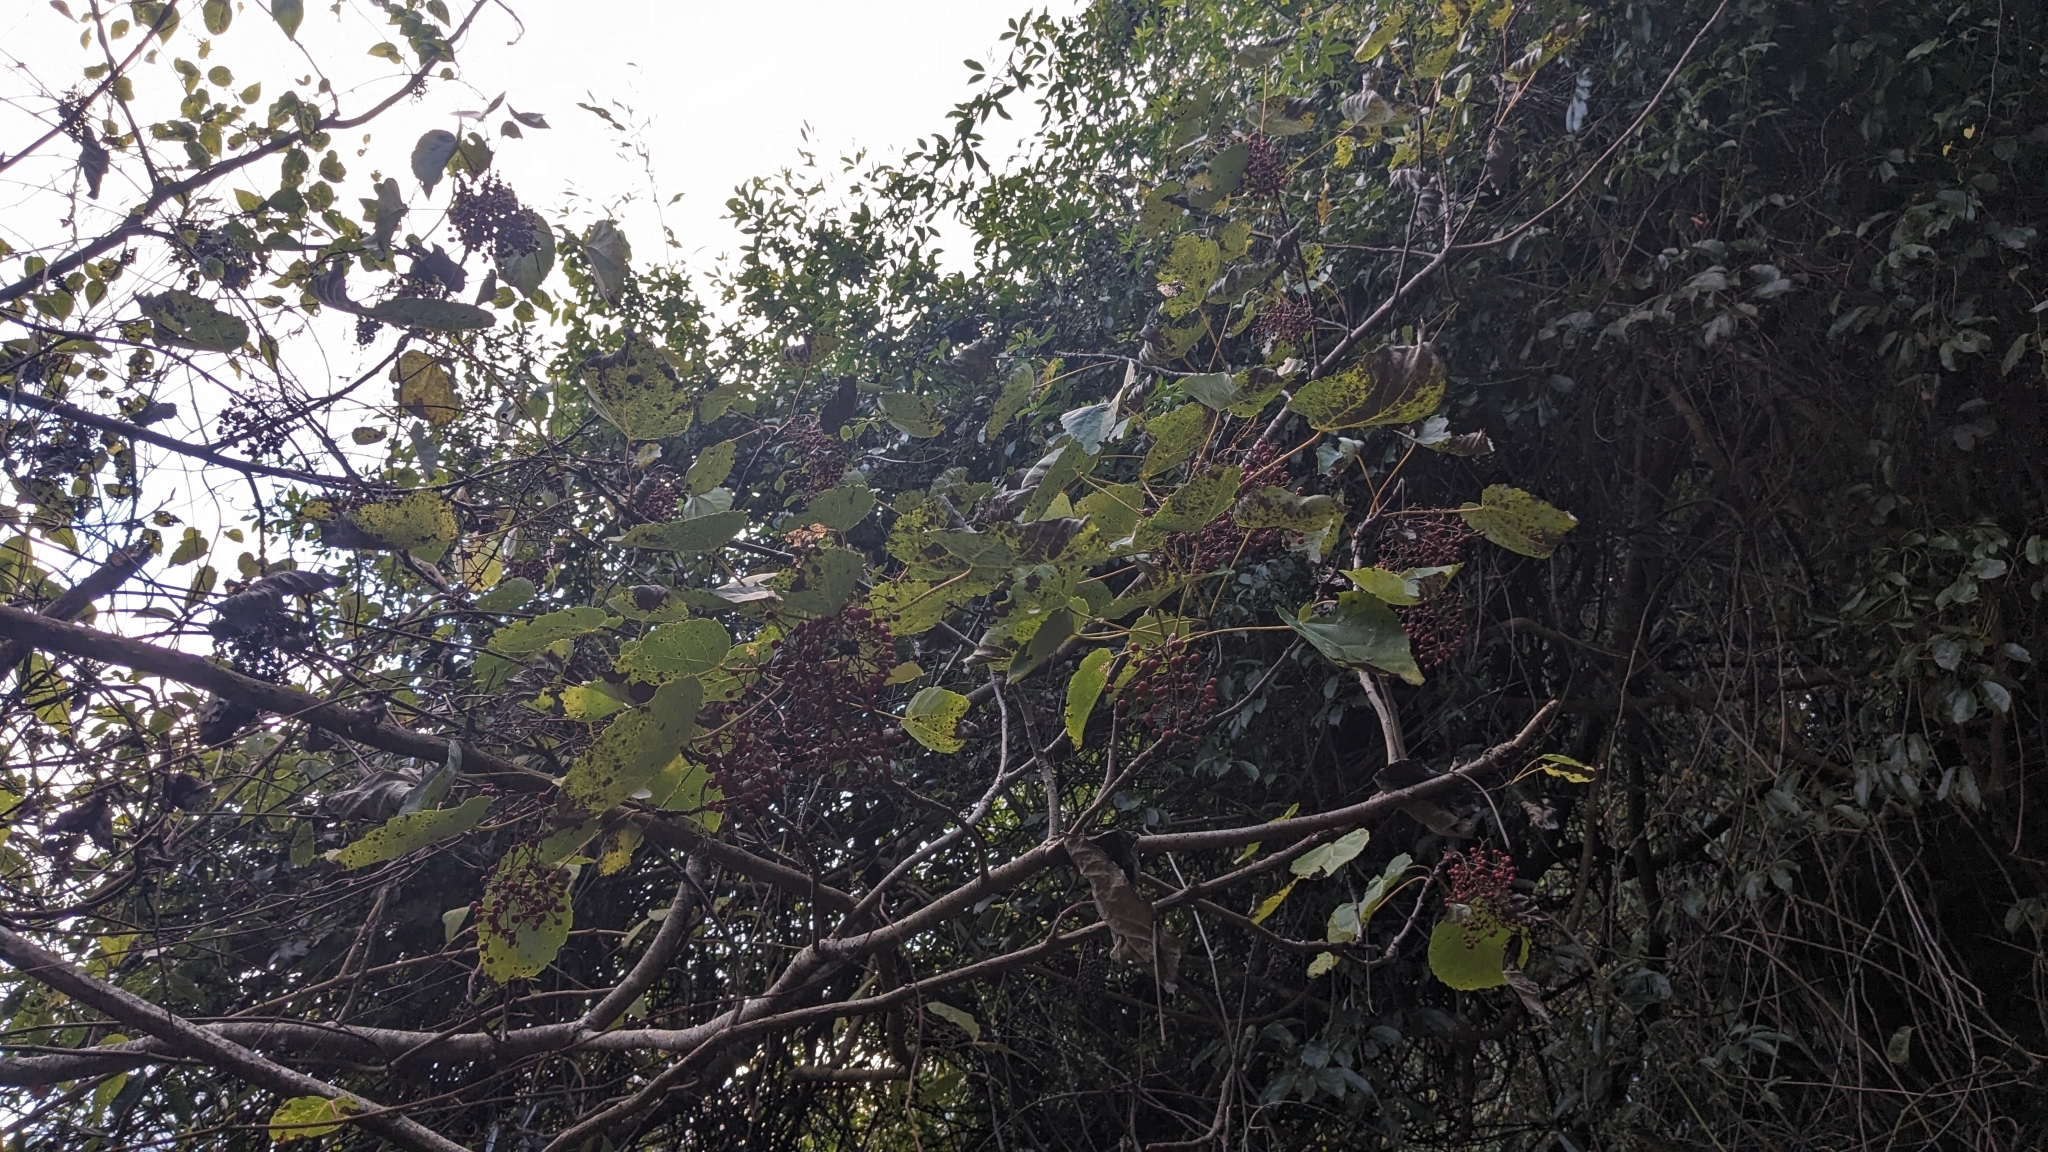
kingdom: Plantae
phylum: Tracheophyta
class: Magnoliopsida
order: Malpighiales
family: Salicaceae
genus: Idesia
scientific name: Idesia polycarpa
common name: Idesia tree
